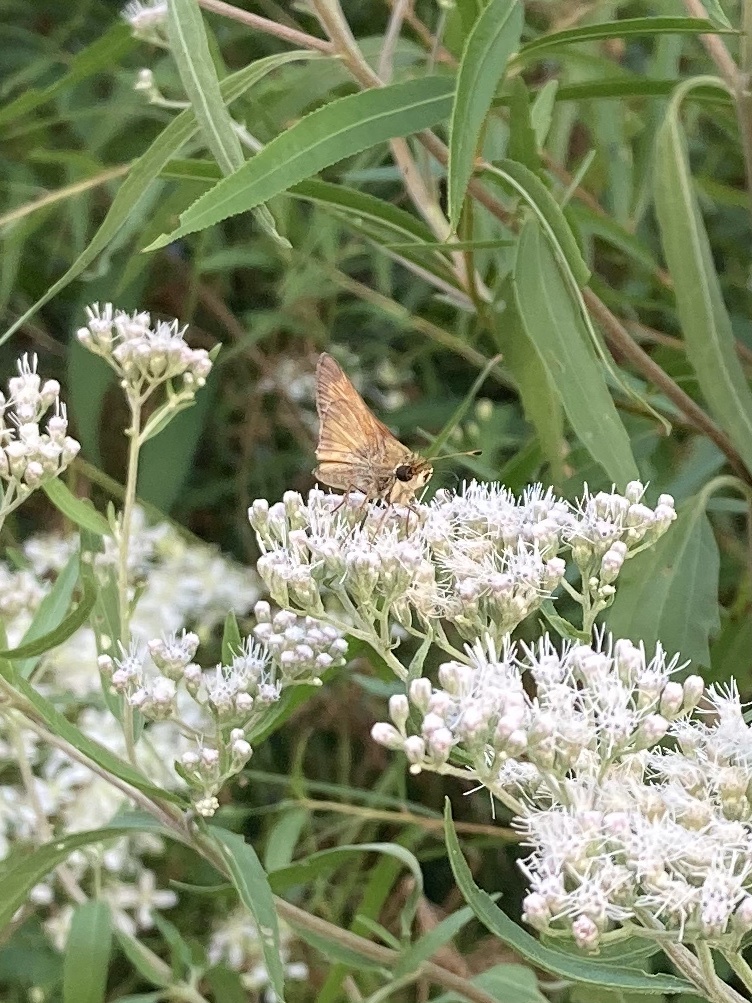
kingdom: Animalia
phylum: Arthropoda
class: Insecta
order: Lepidoptera
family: Hesperiidae
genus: Atalopedes
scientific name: Atalopedes
